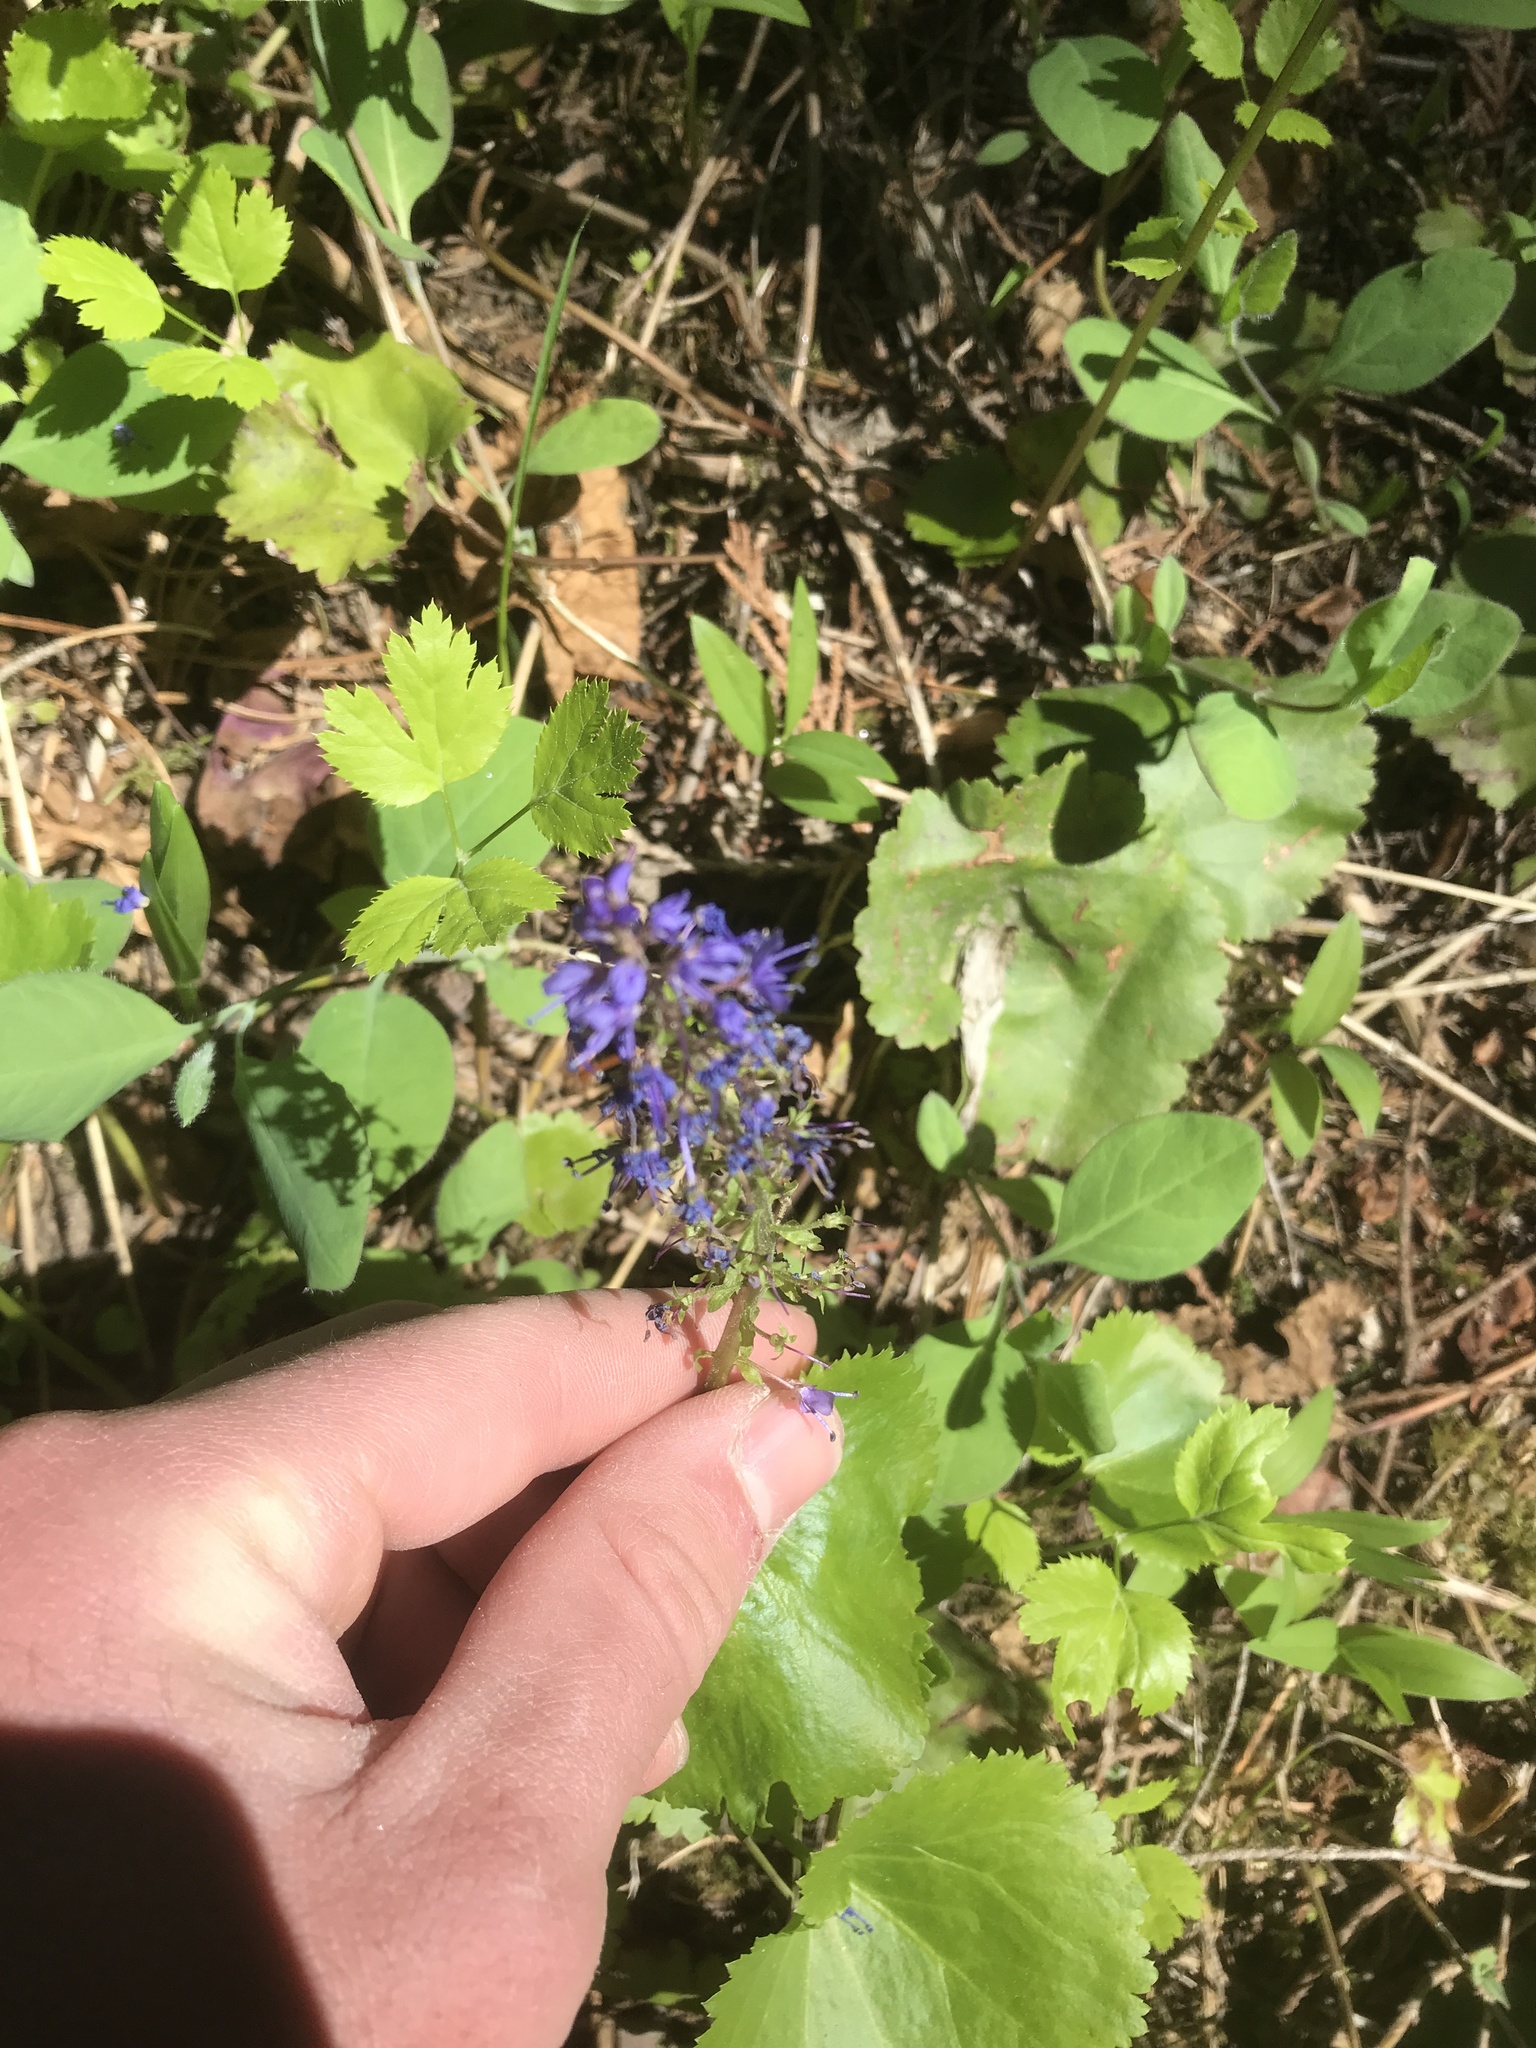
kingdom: Plantae
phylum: Tracheophyta
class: Magnoliopsida
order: Lamiales
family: Plantaginaceae
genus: Synthyris
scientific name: Synthyris missurica
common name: Kitten-tails
